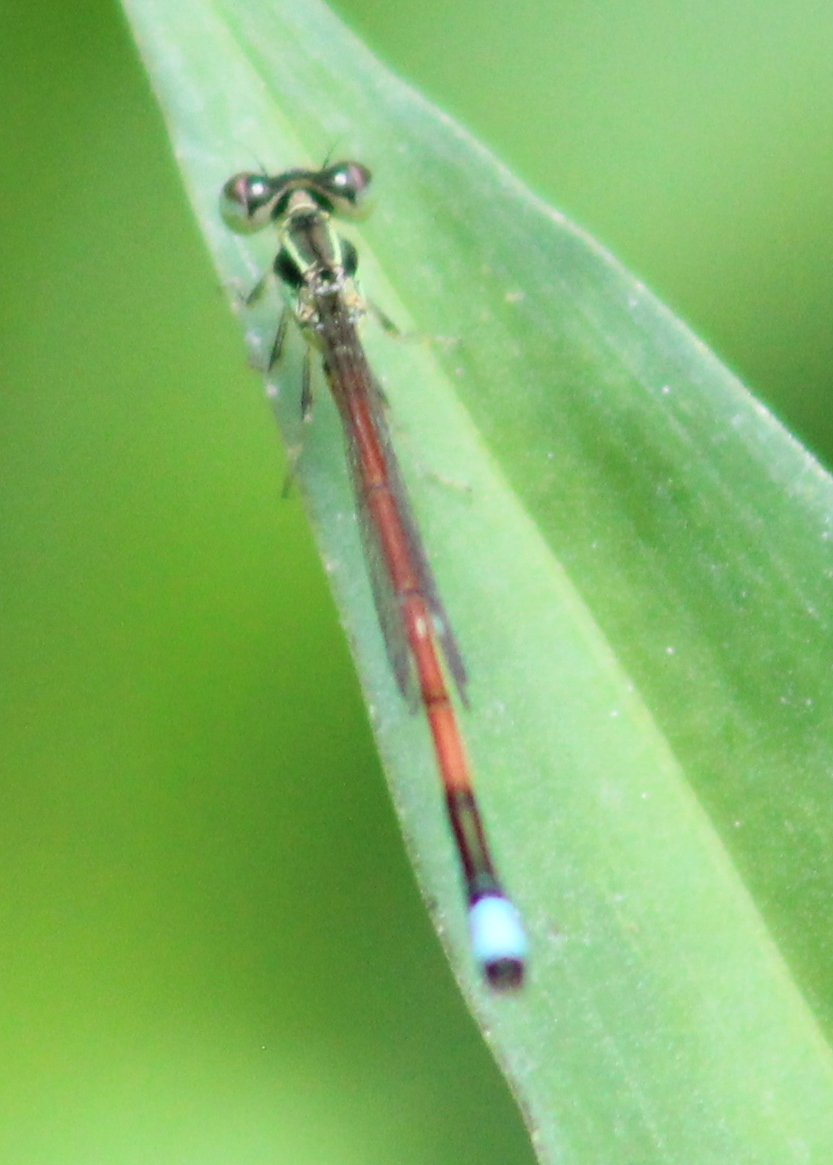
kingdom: Animalia
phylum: Arthropoda
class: Insecta
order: Odonata
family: Coenagrionidae
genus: Ischnura
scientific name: Ischnura aurora
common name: Gossamer damselfly
